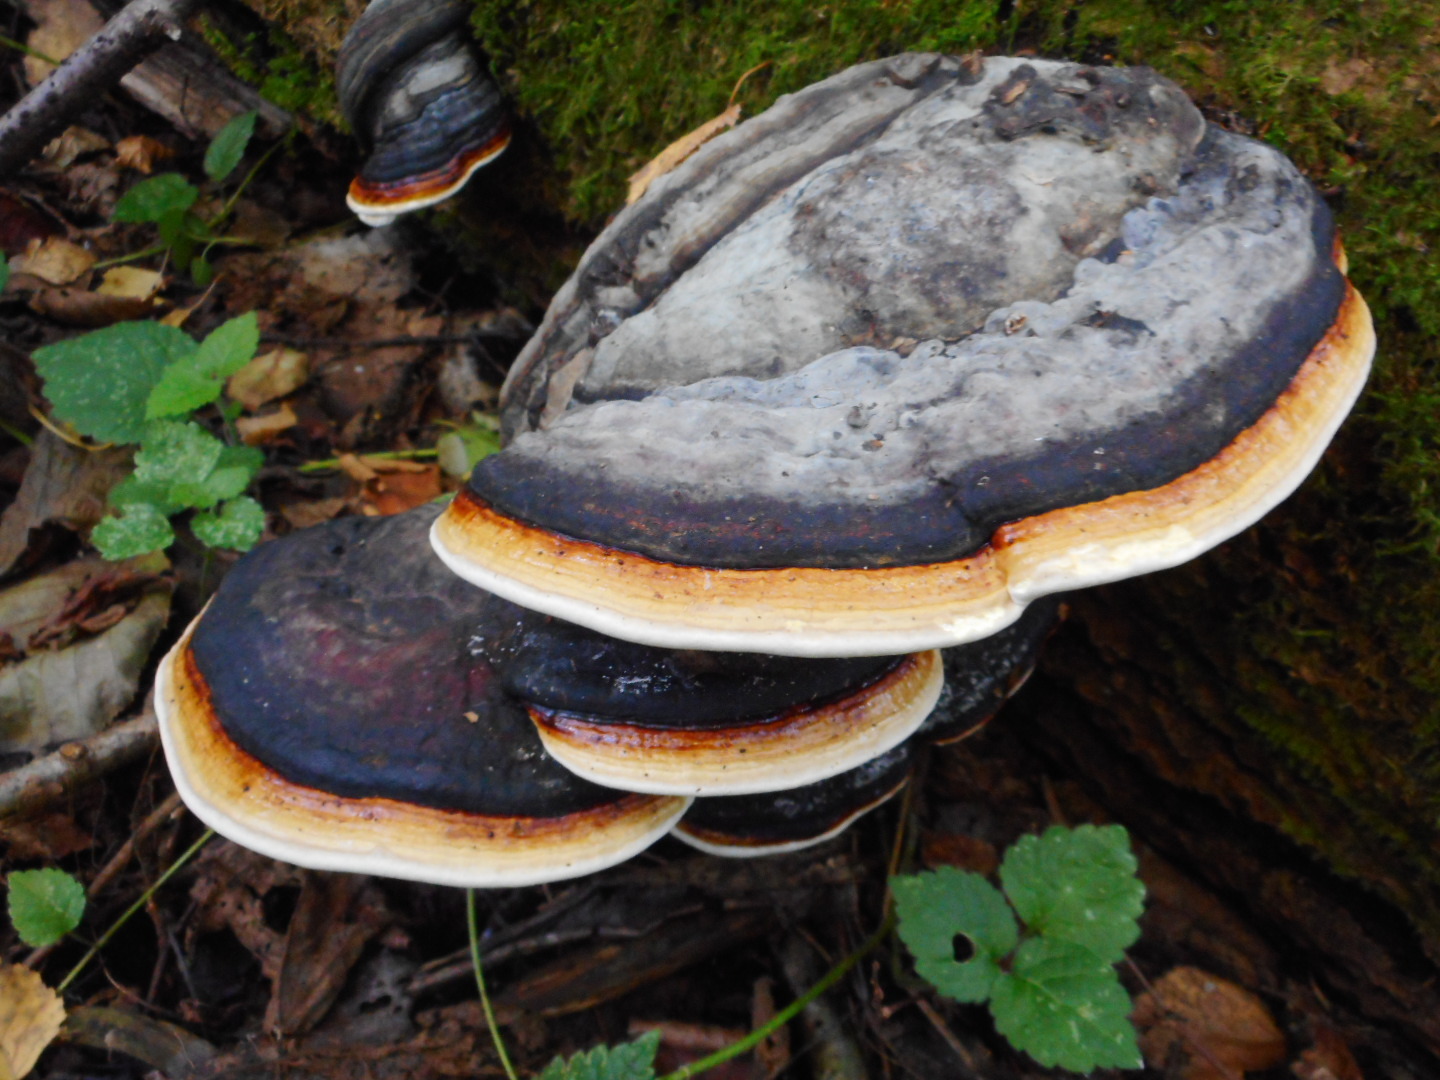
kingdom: Fungi
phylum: Basidiomycota
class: Agaricomycetes
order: Polyporales
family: Fomitopsidaceae
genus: Fomitopsis
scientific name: Fomitopsis pinicola
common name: Red-belted bracket
